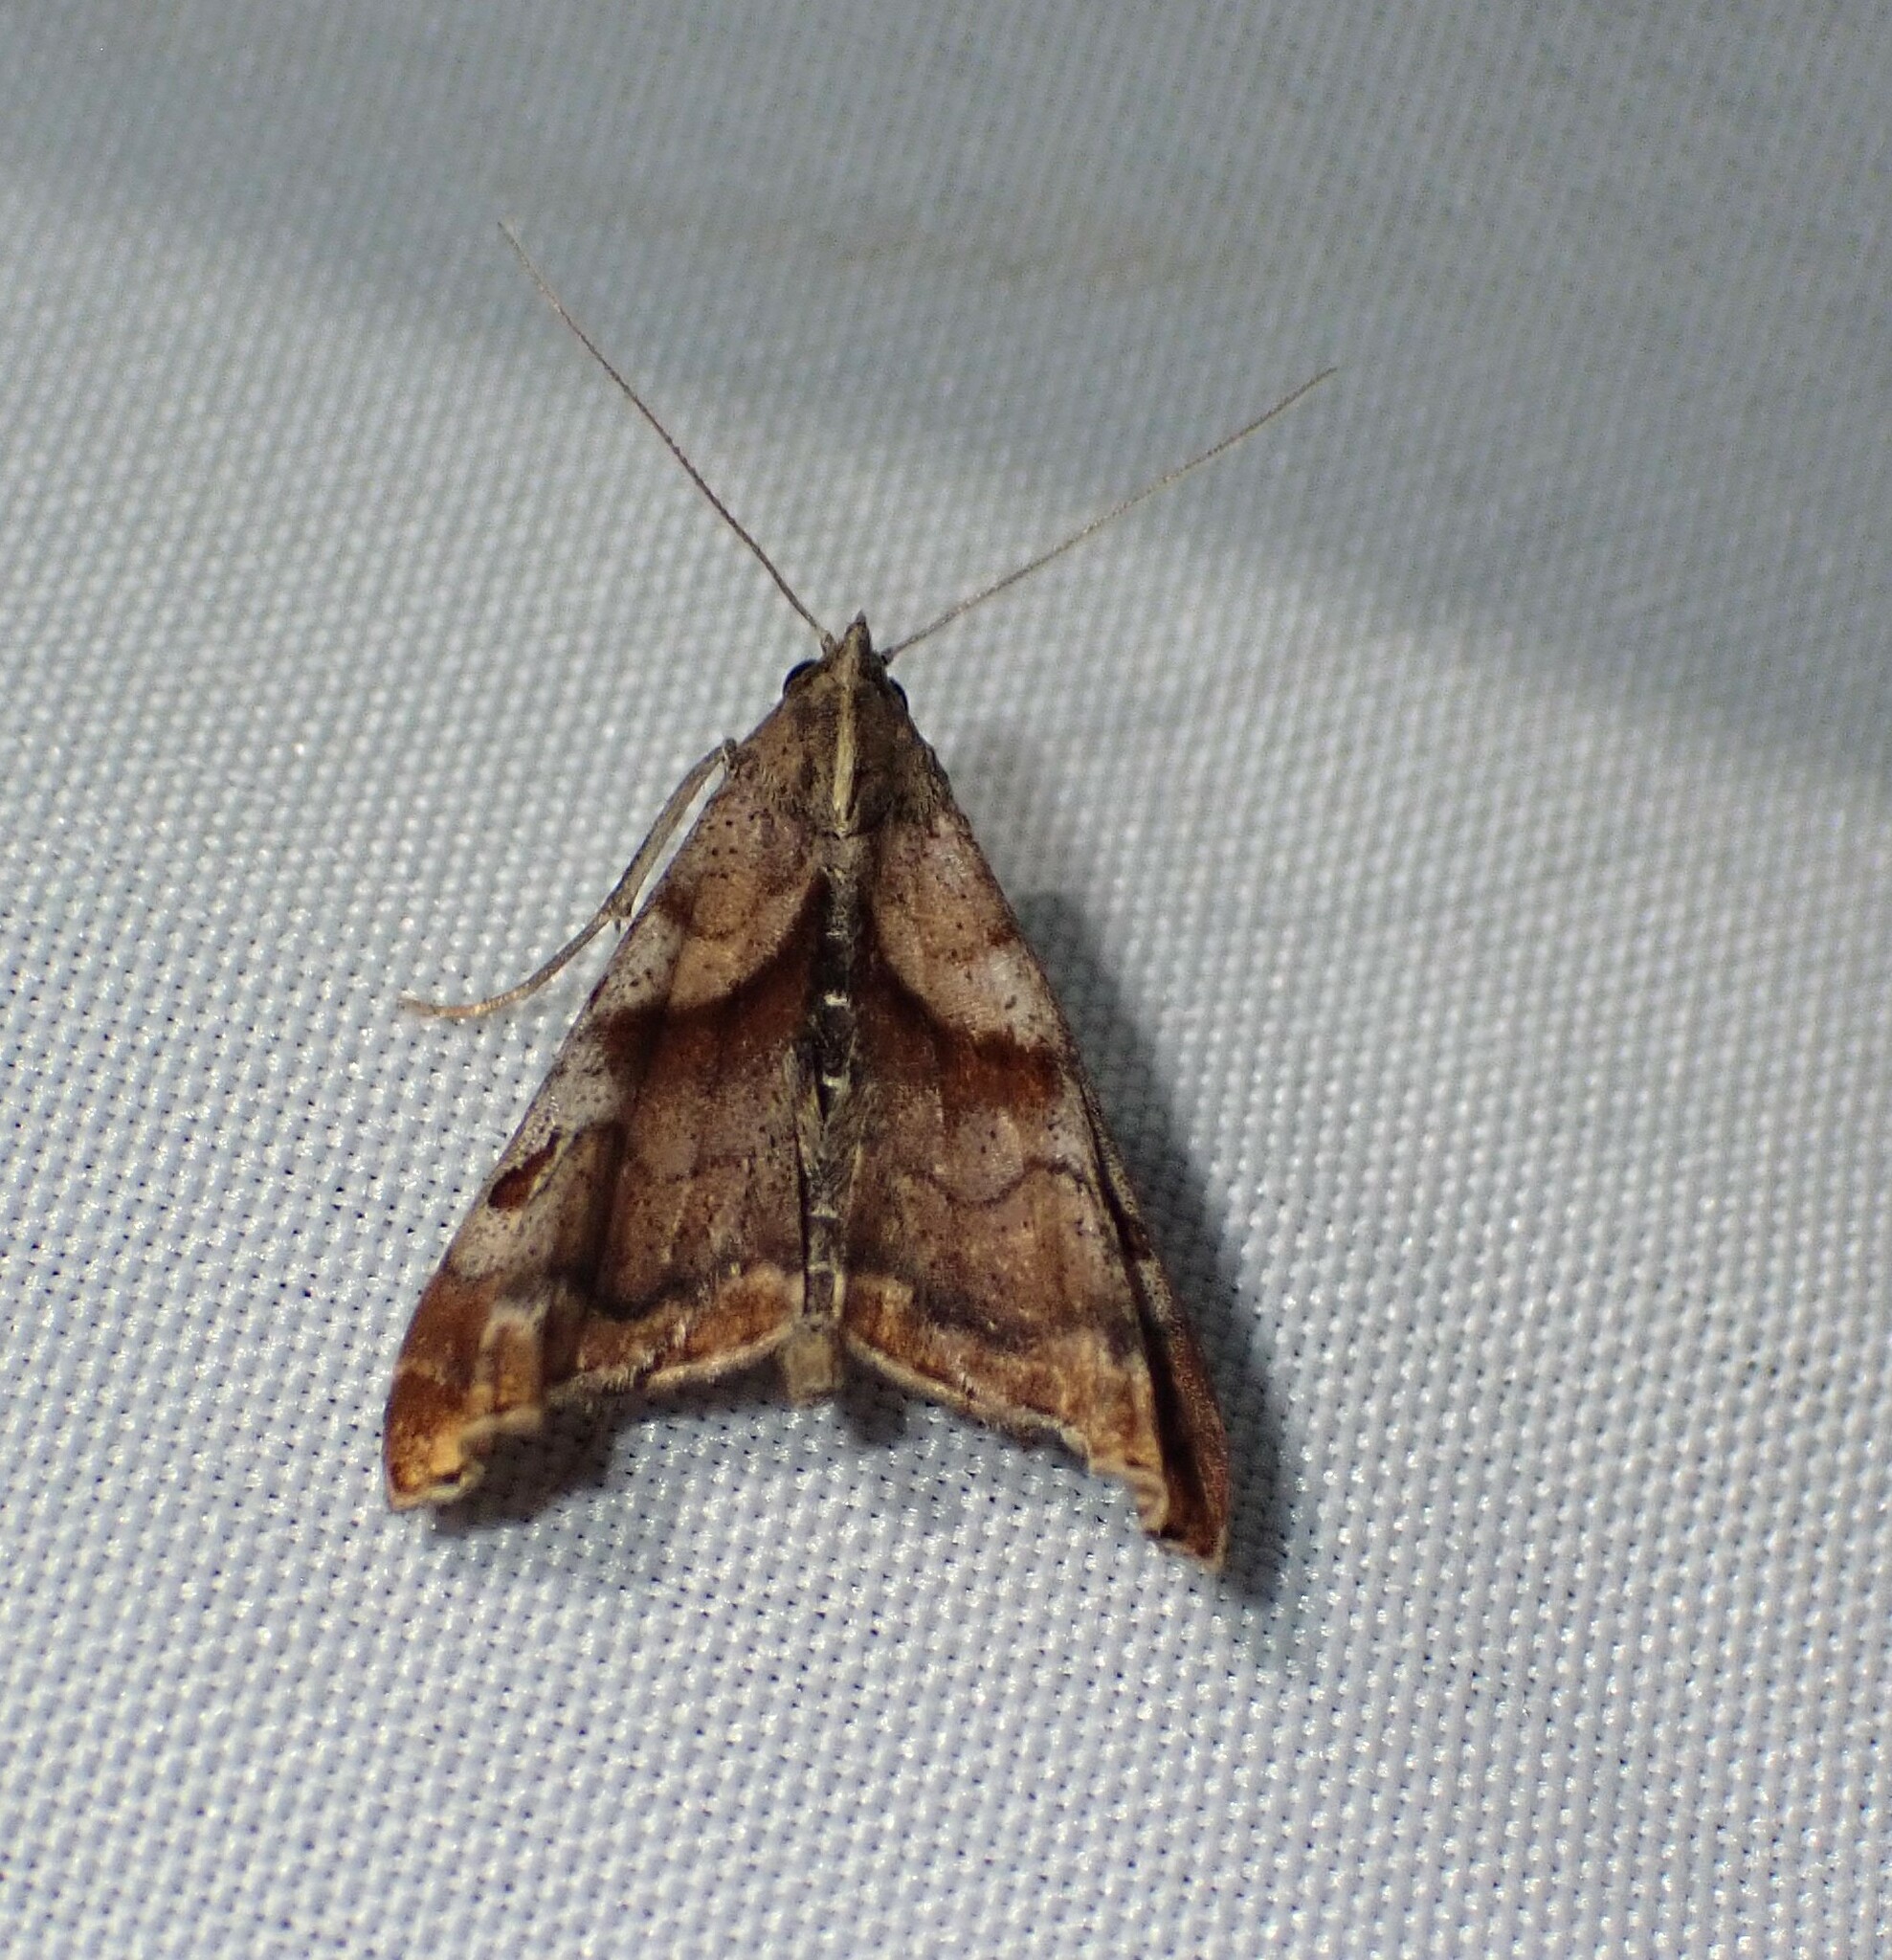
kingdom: Animalia
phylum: Arthropoda
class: Insecta
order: Lepidoptera
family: Erebidae
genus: Palthis
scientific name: Palthis angulalis
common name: Dark-spotted palthis moth
